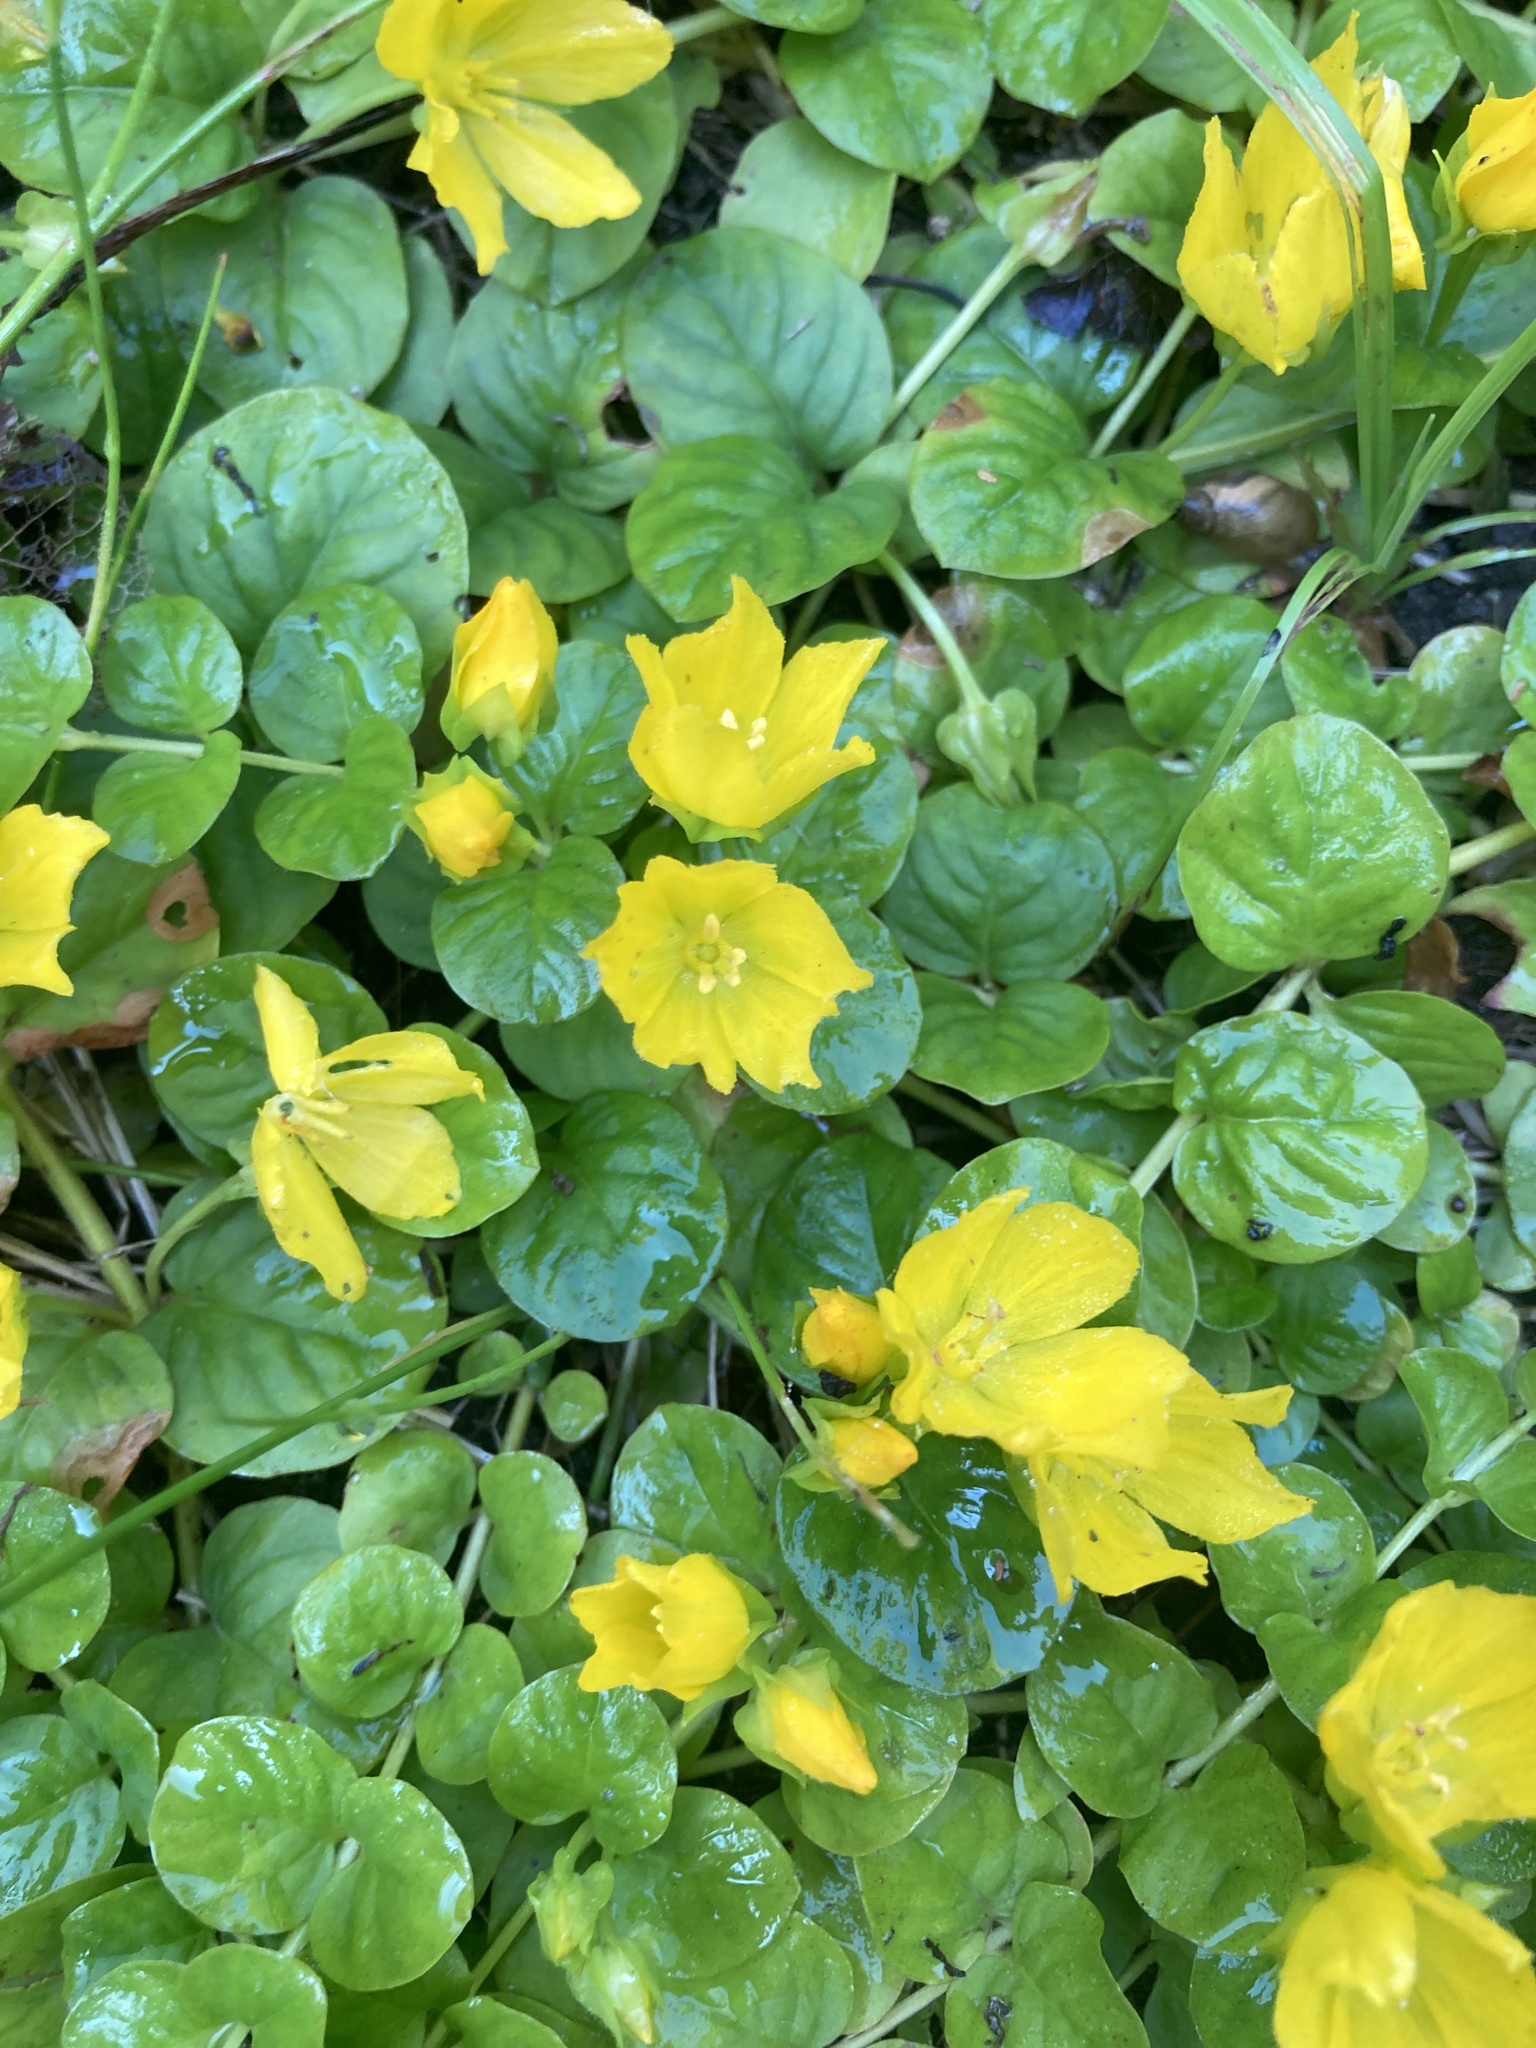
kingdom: Plantae
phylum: Tracheophyta
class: Magnoliopsida
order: Ericales
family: Primulaceae
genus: Lysimachia
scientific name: Lysimachia nummularia
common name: Moneywort
